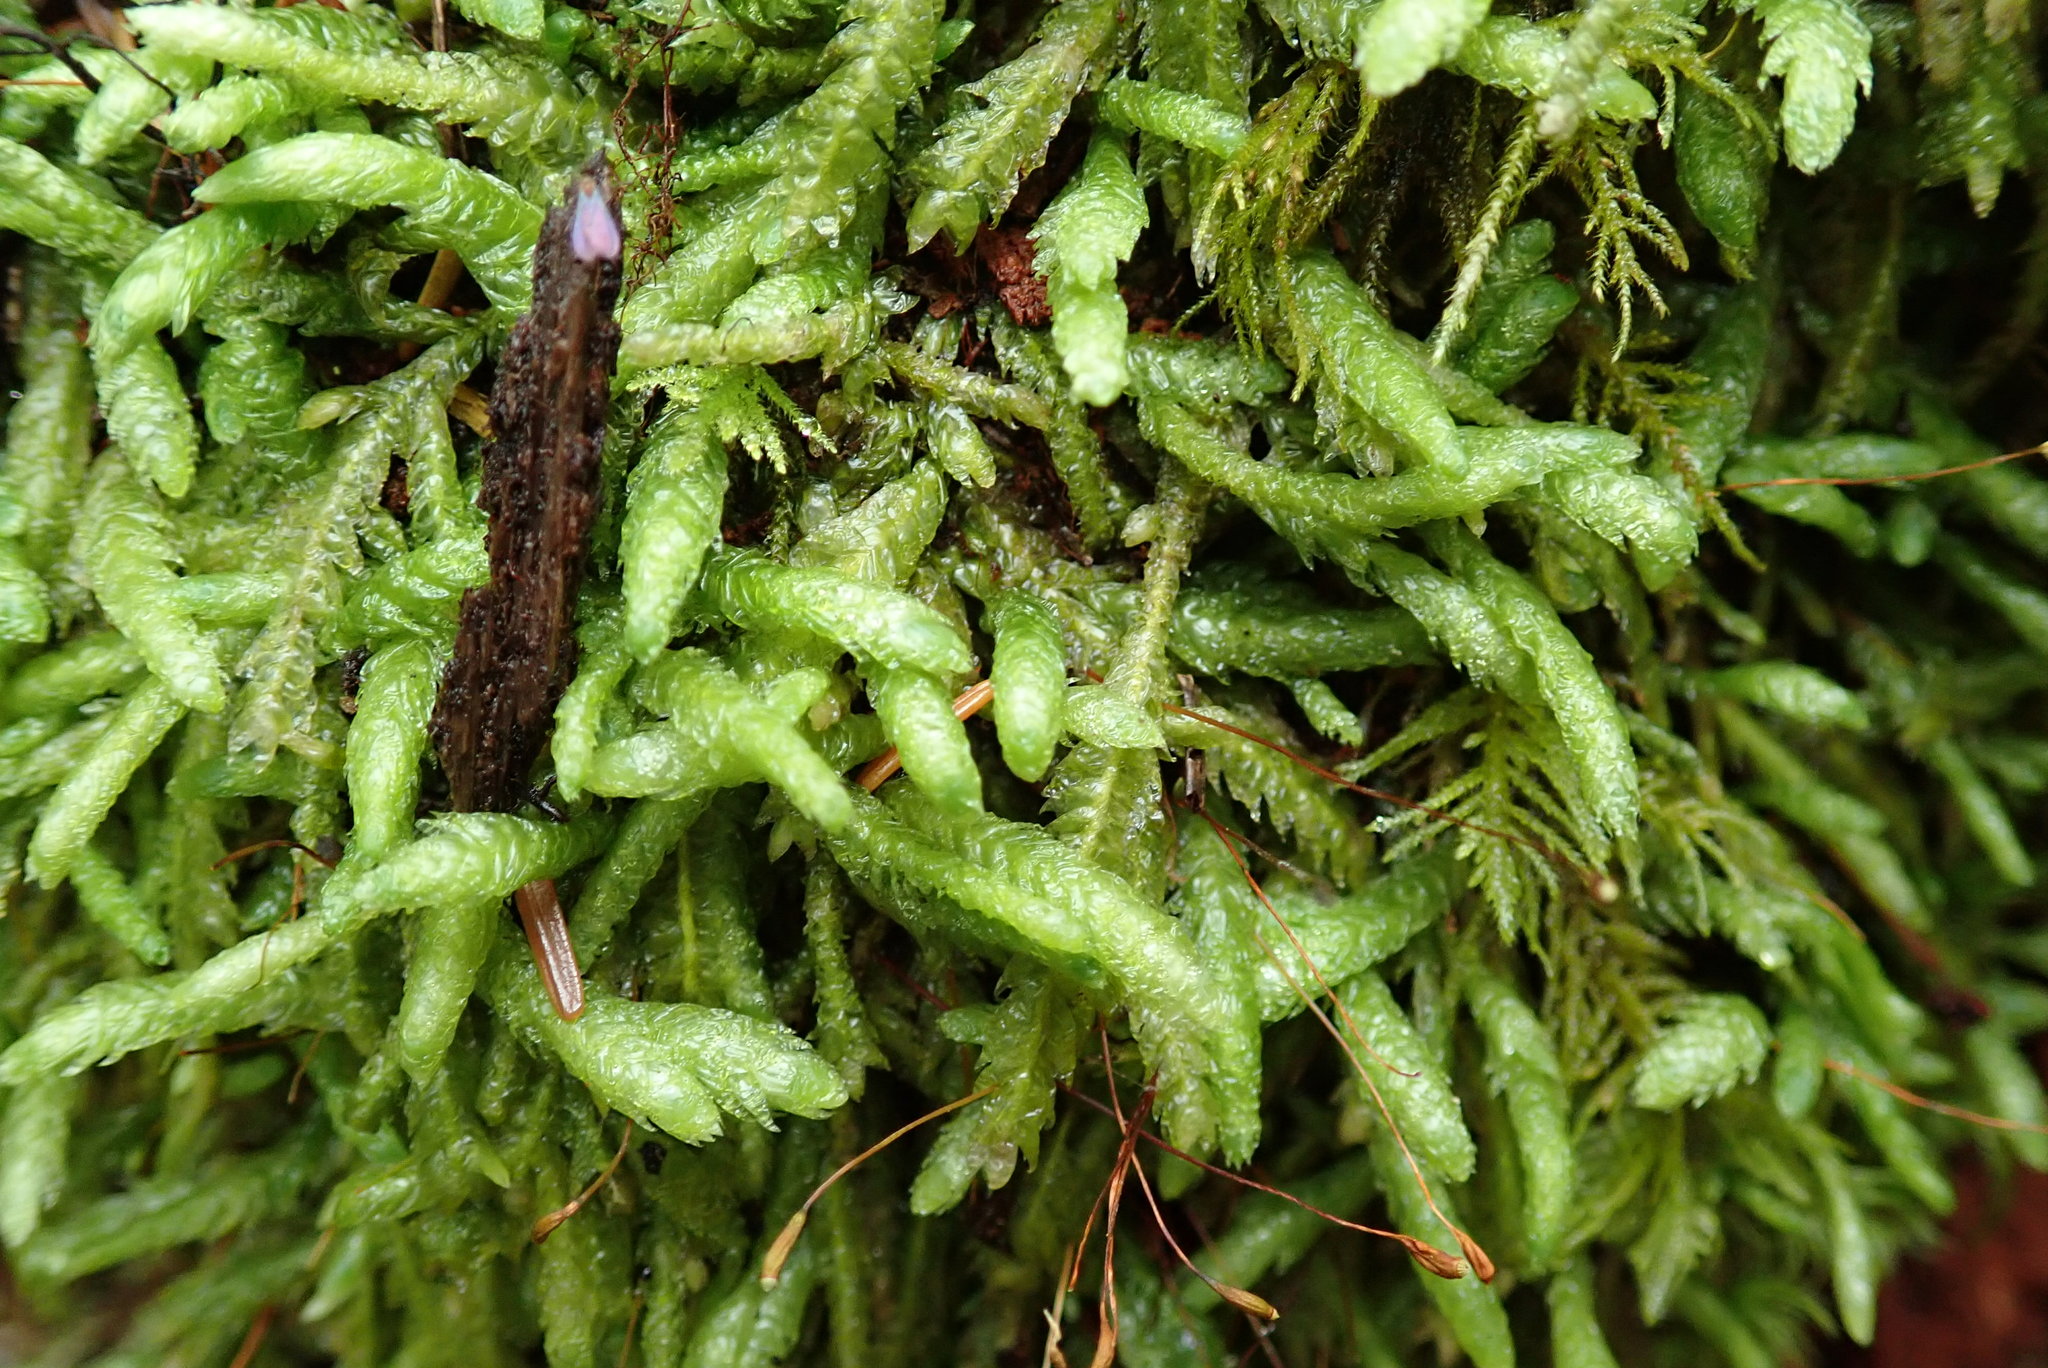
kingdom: Plantae
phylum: Bryophyta
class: Bryopsida
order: Hypnales
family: Plagiotheciaceae
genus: Plagiothecium
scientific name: Plagiothecium undulatum
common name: Waved silk-moss
